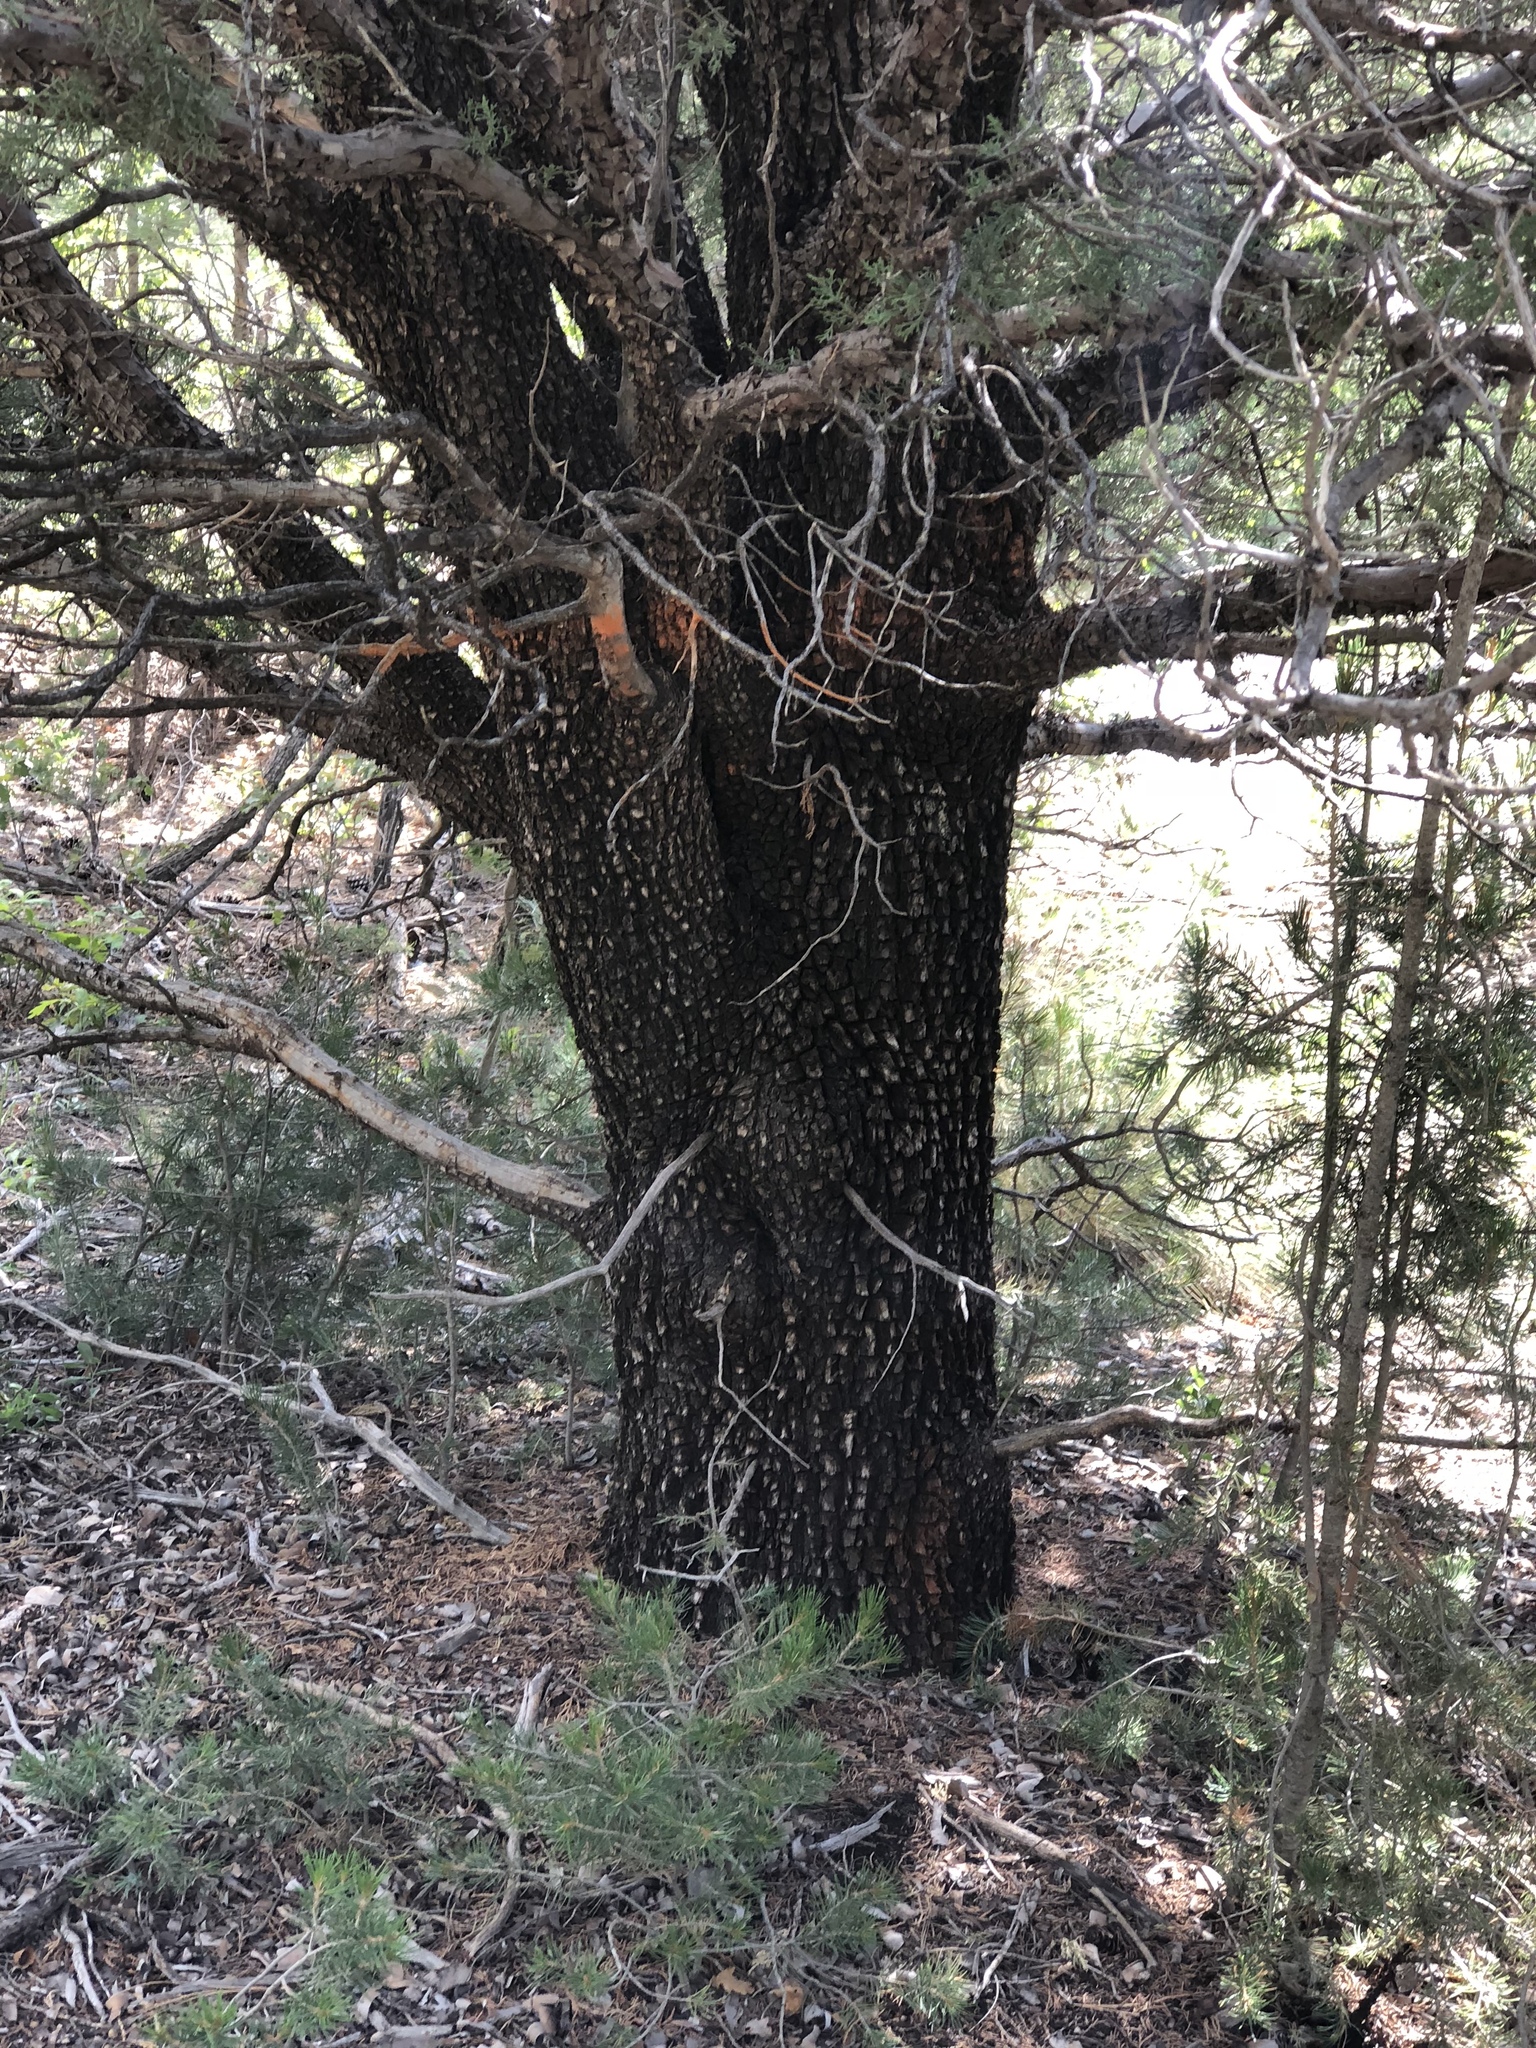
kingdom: Plantae
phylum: Tracheophyta
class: Pinopsida
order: Pinales
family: Cupressaceae
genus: Juniperus
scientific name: Juniperus deppeana
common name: Alligator juniper
